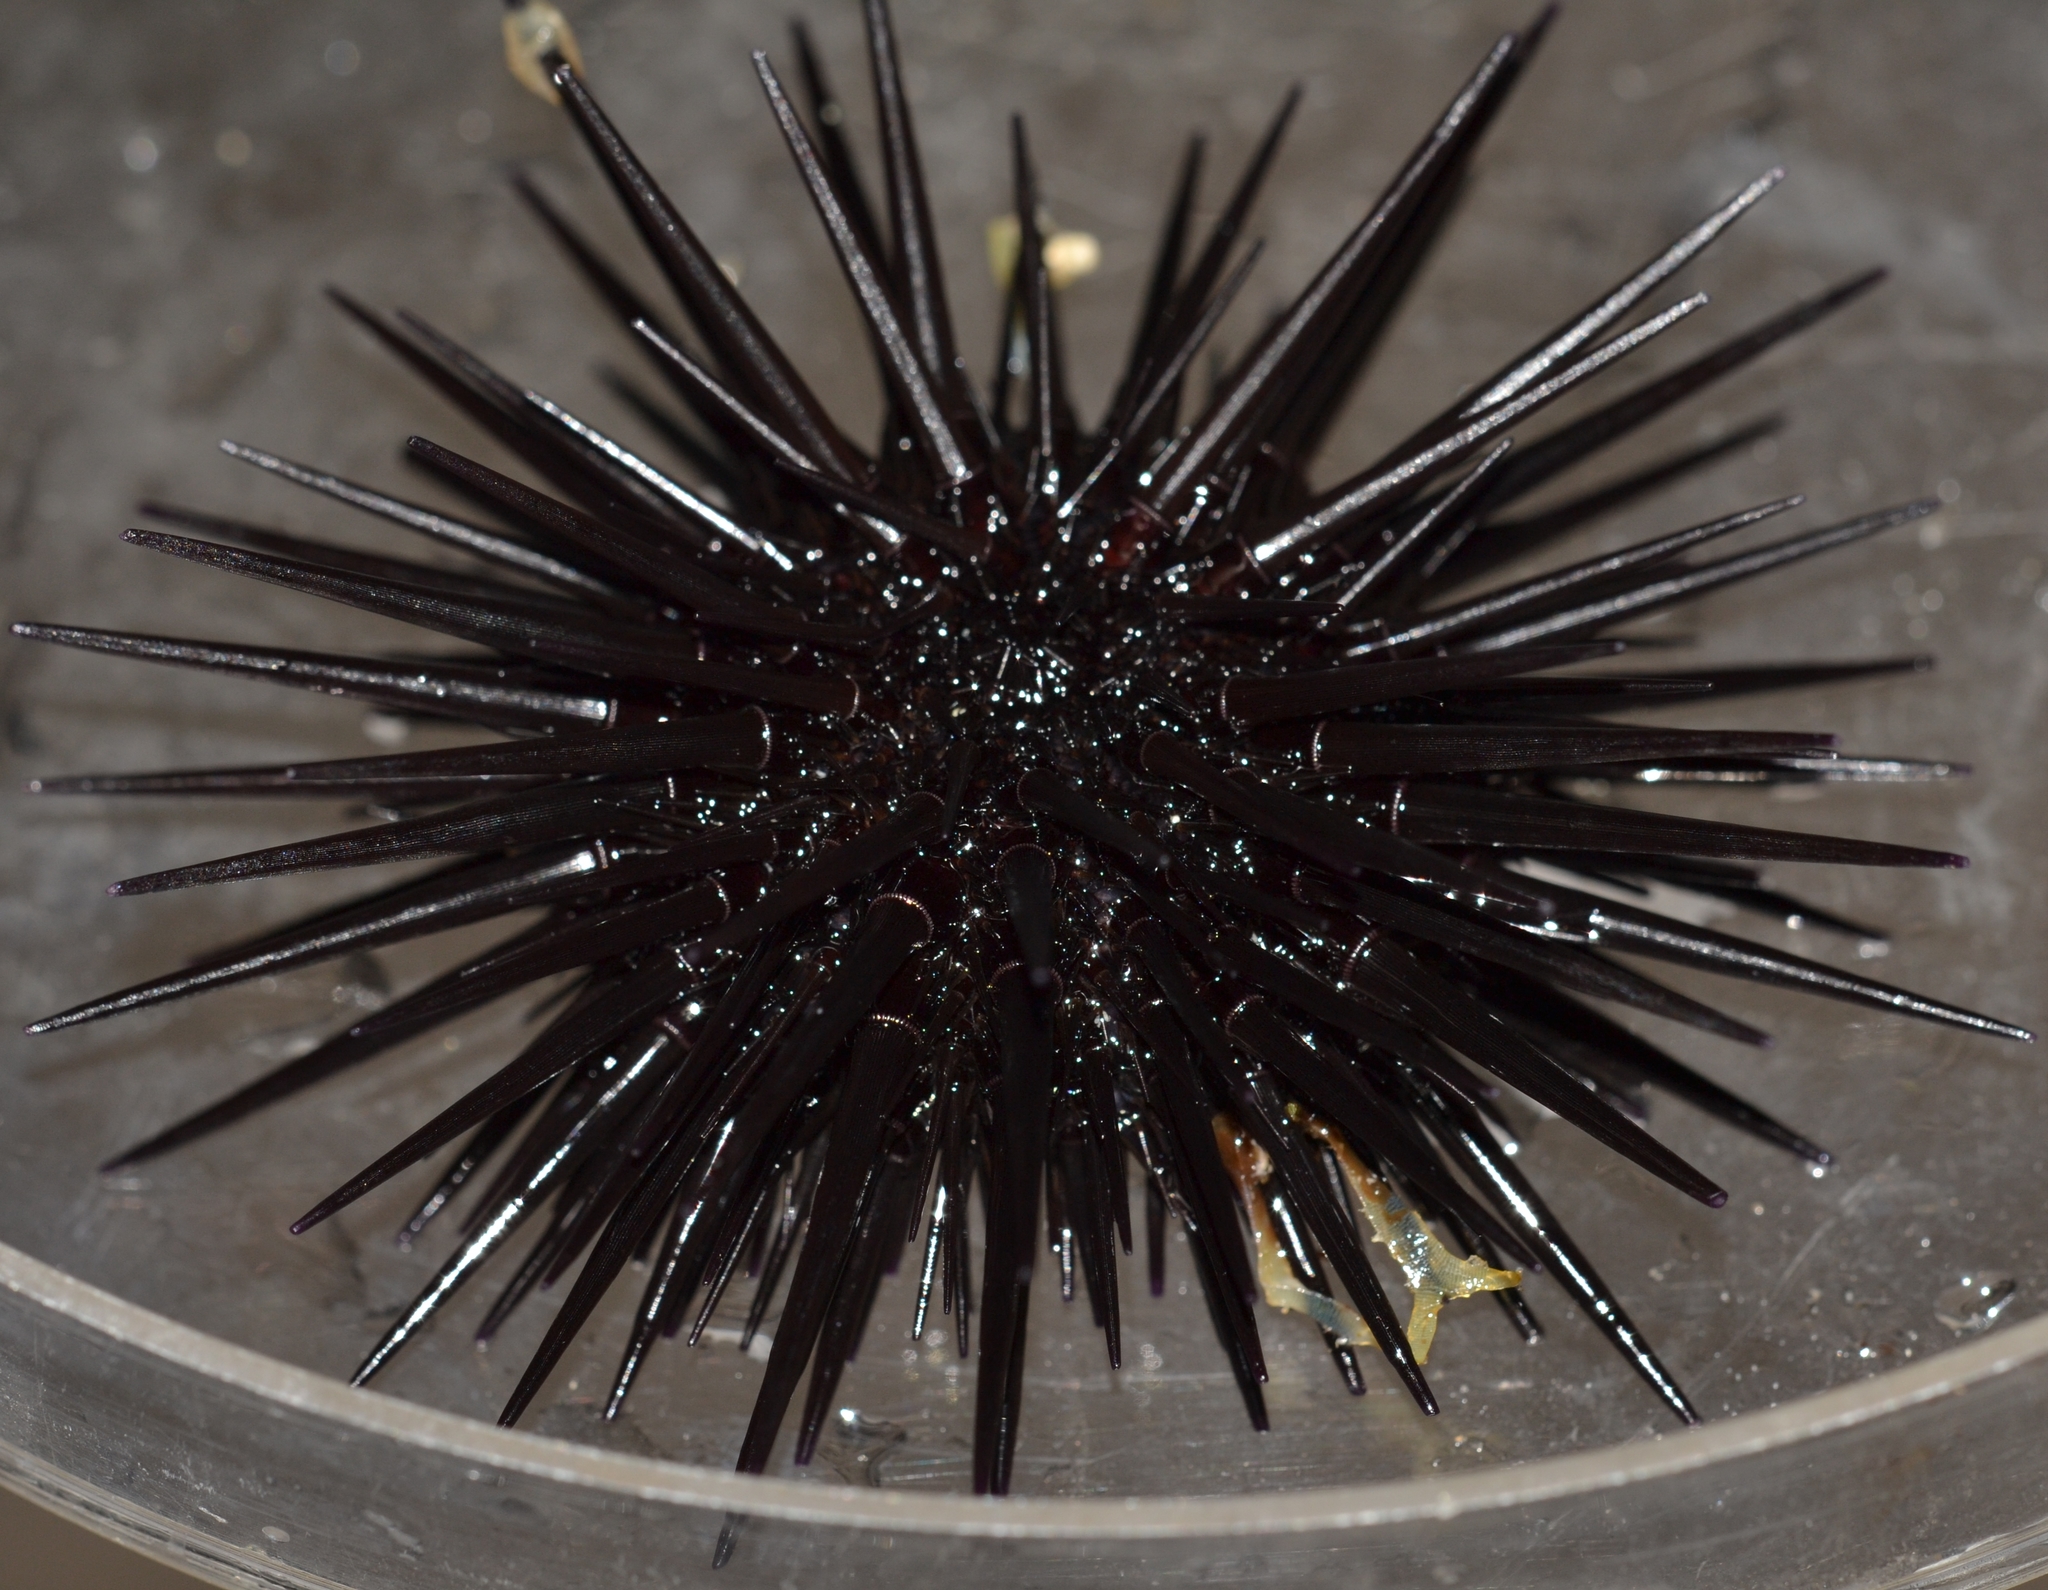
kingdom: Animalia
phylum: Echinodermata
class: Echinoidea
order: Camarodonta
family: Echinometridae
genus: Echinometra
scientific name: Echinometra oblonga
